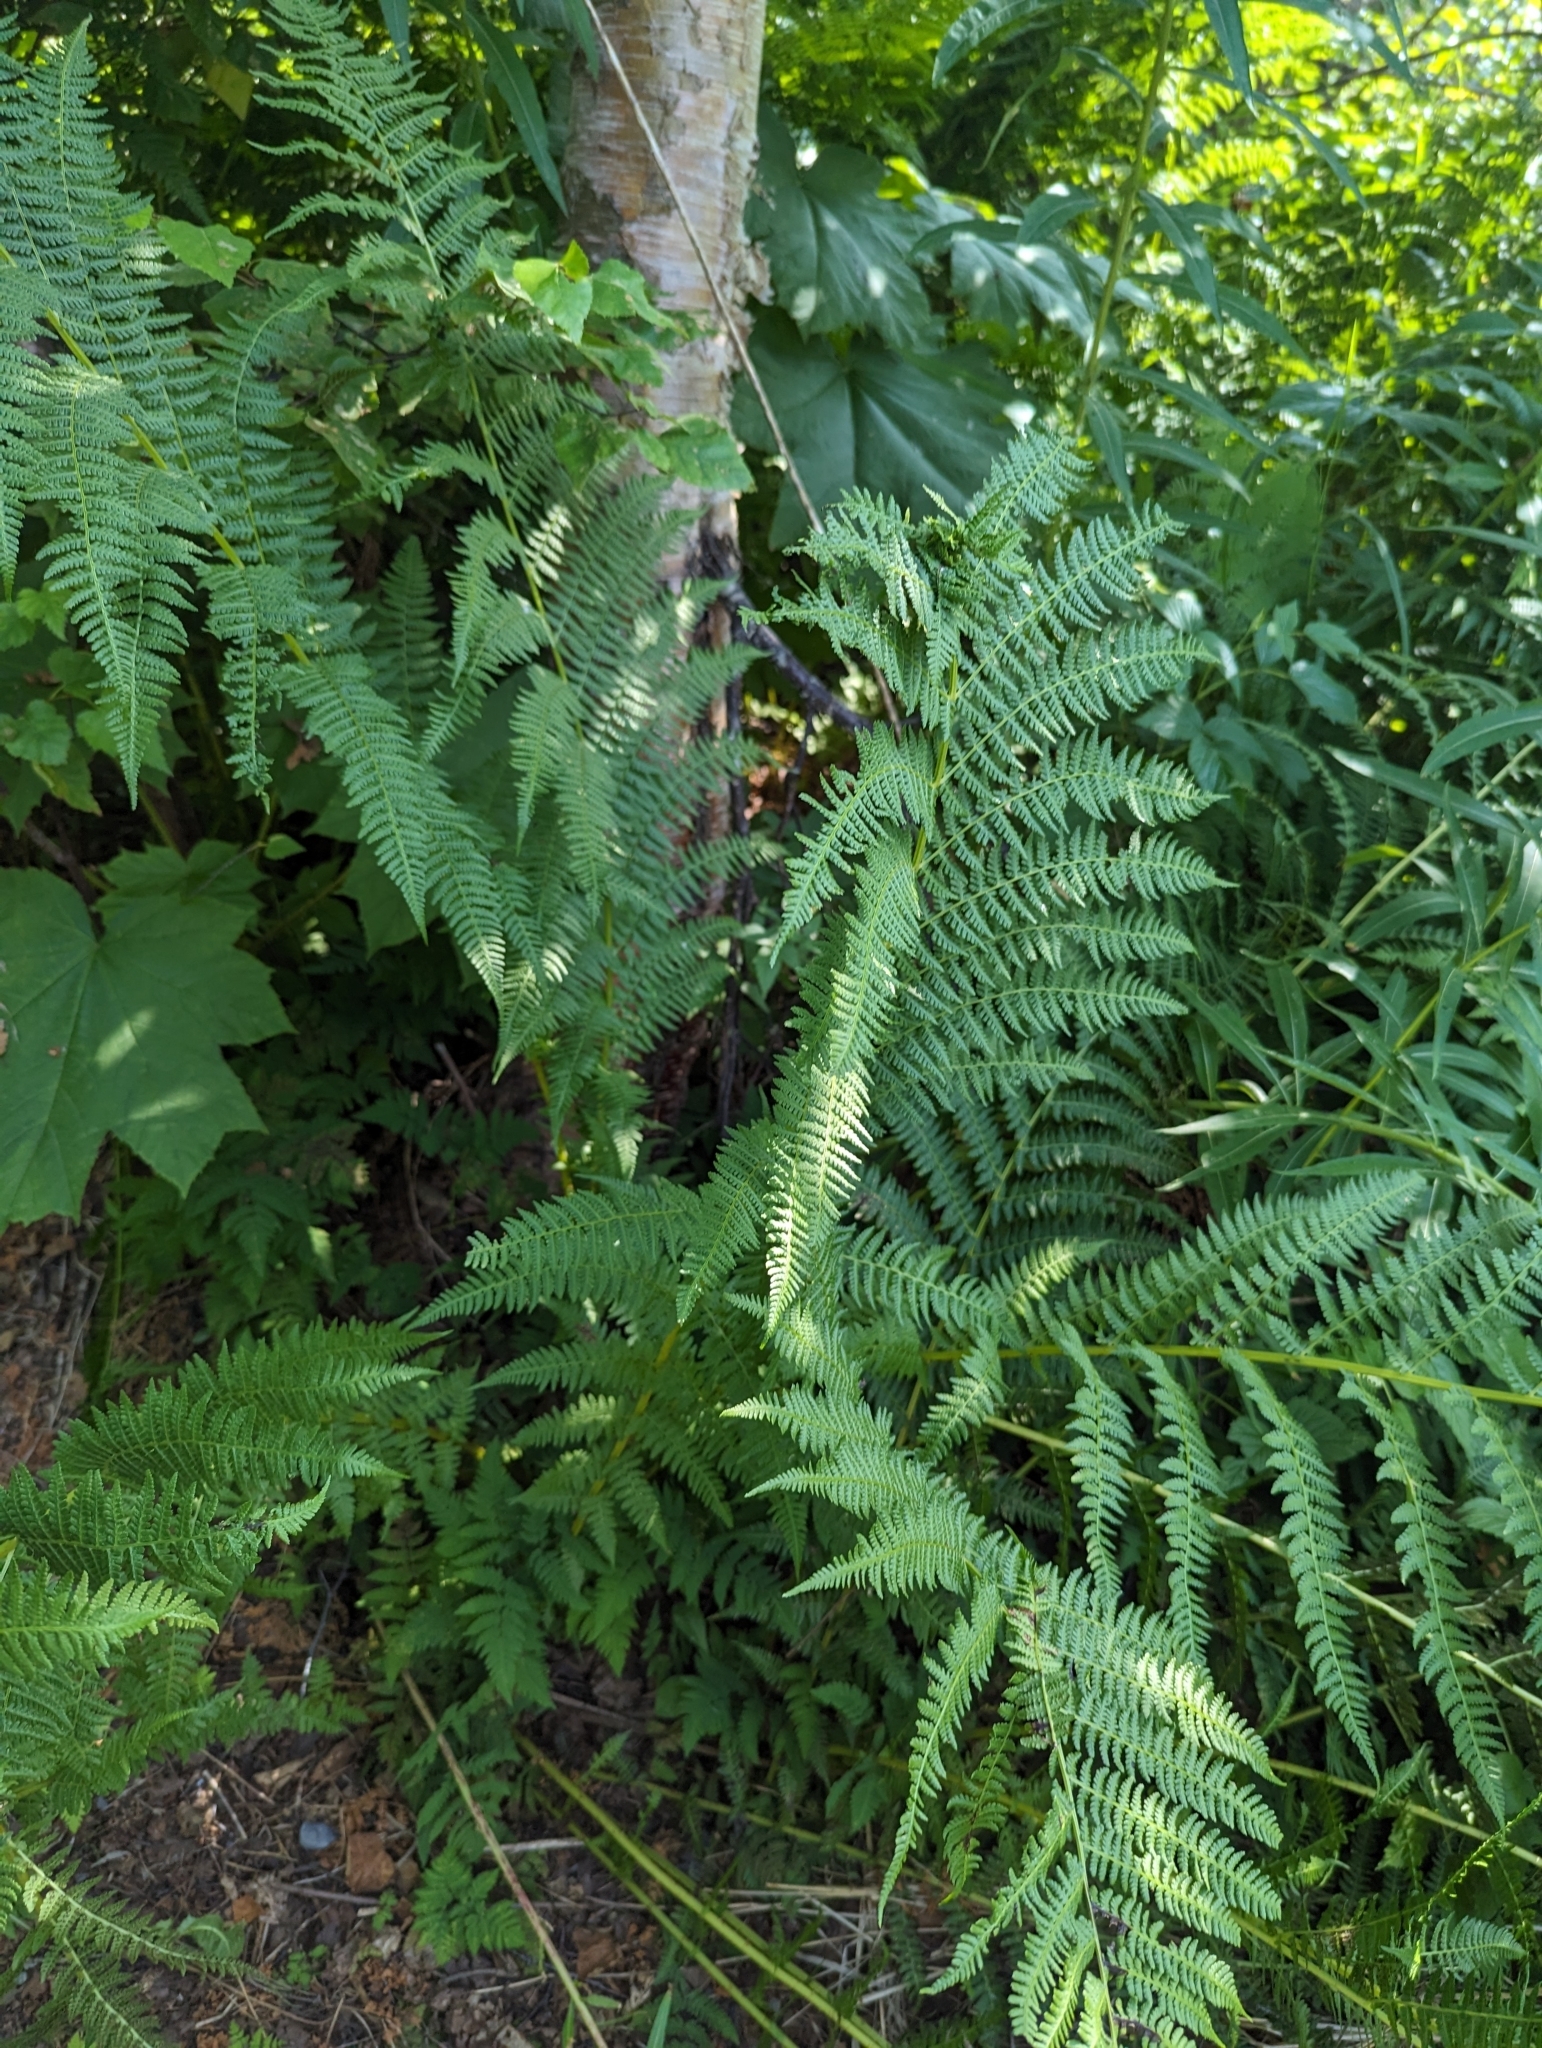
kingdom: Plantae
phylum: Tracheophyta
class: Polypodiopsida
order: Polypodiales
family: Athyriaceae
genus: Athyrium
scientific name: Athyrium cyclosorum
